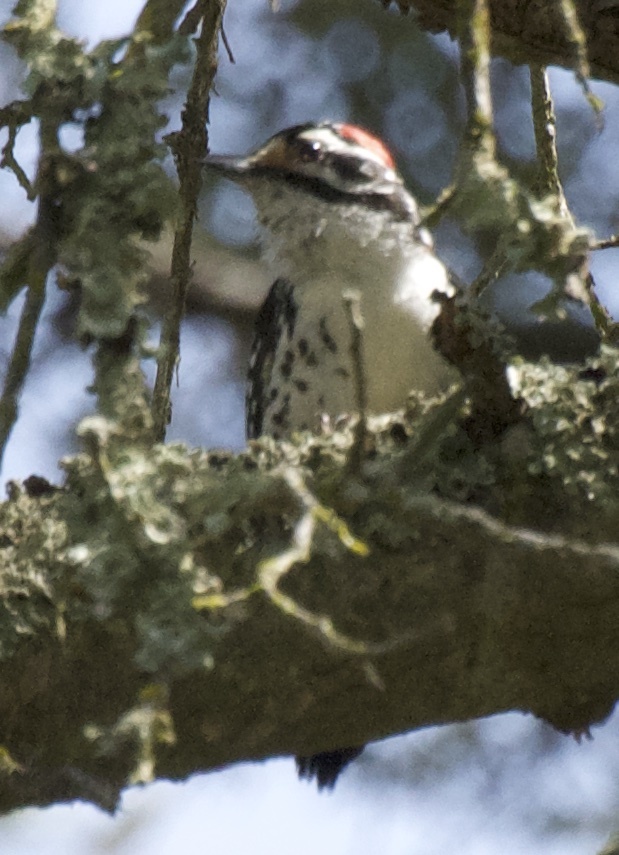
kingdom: Animalia
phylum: Chordata
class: Aves
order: Piciformes
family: Picidae
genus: Dryobates
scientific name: Dryobates nuttallii
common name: Nuttall's woodpecker
